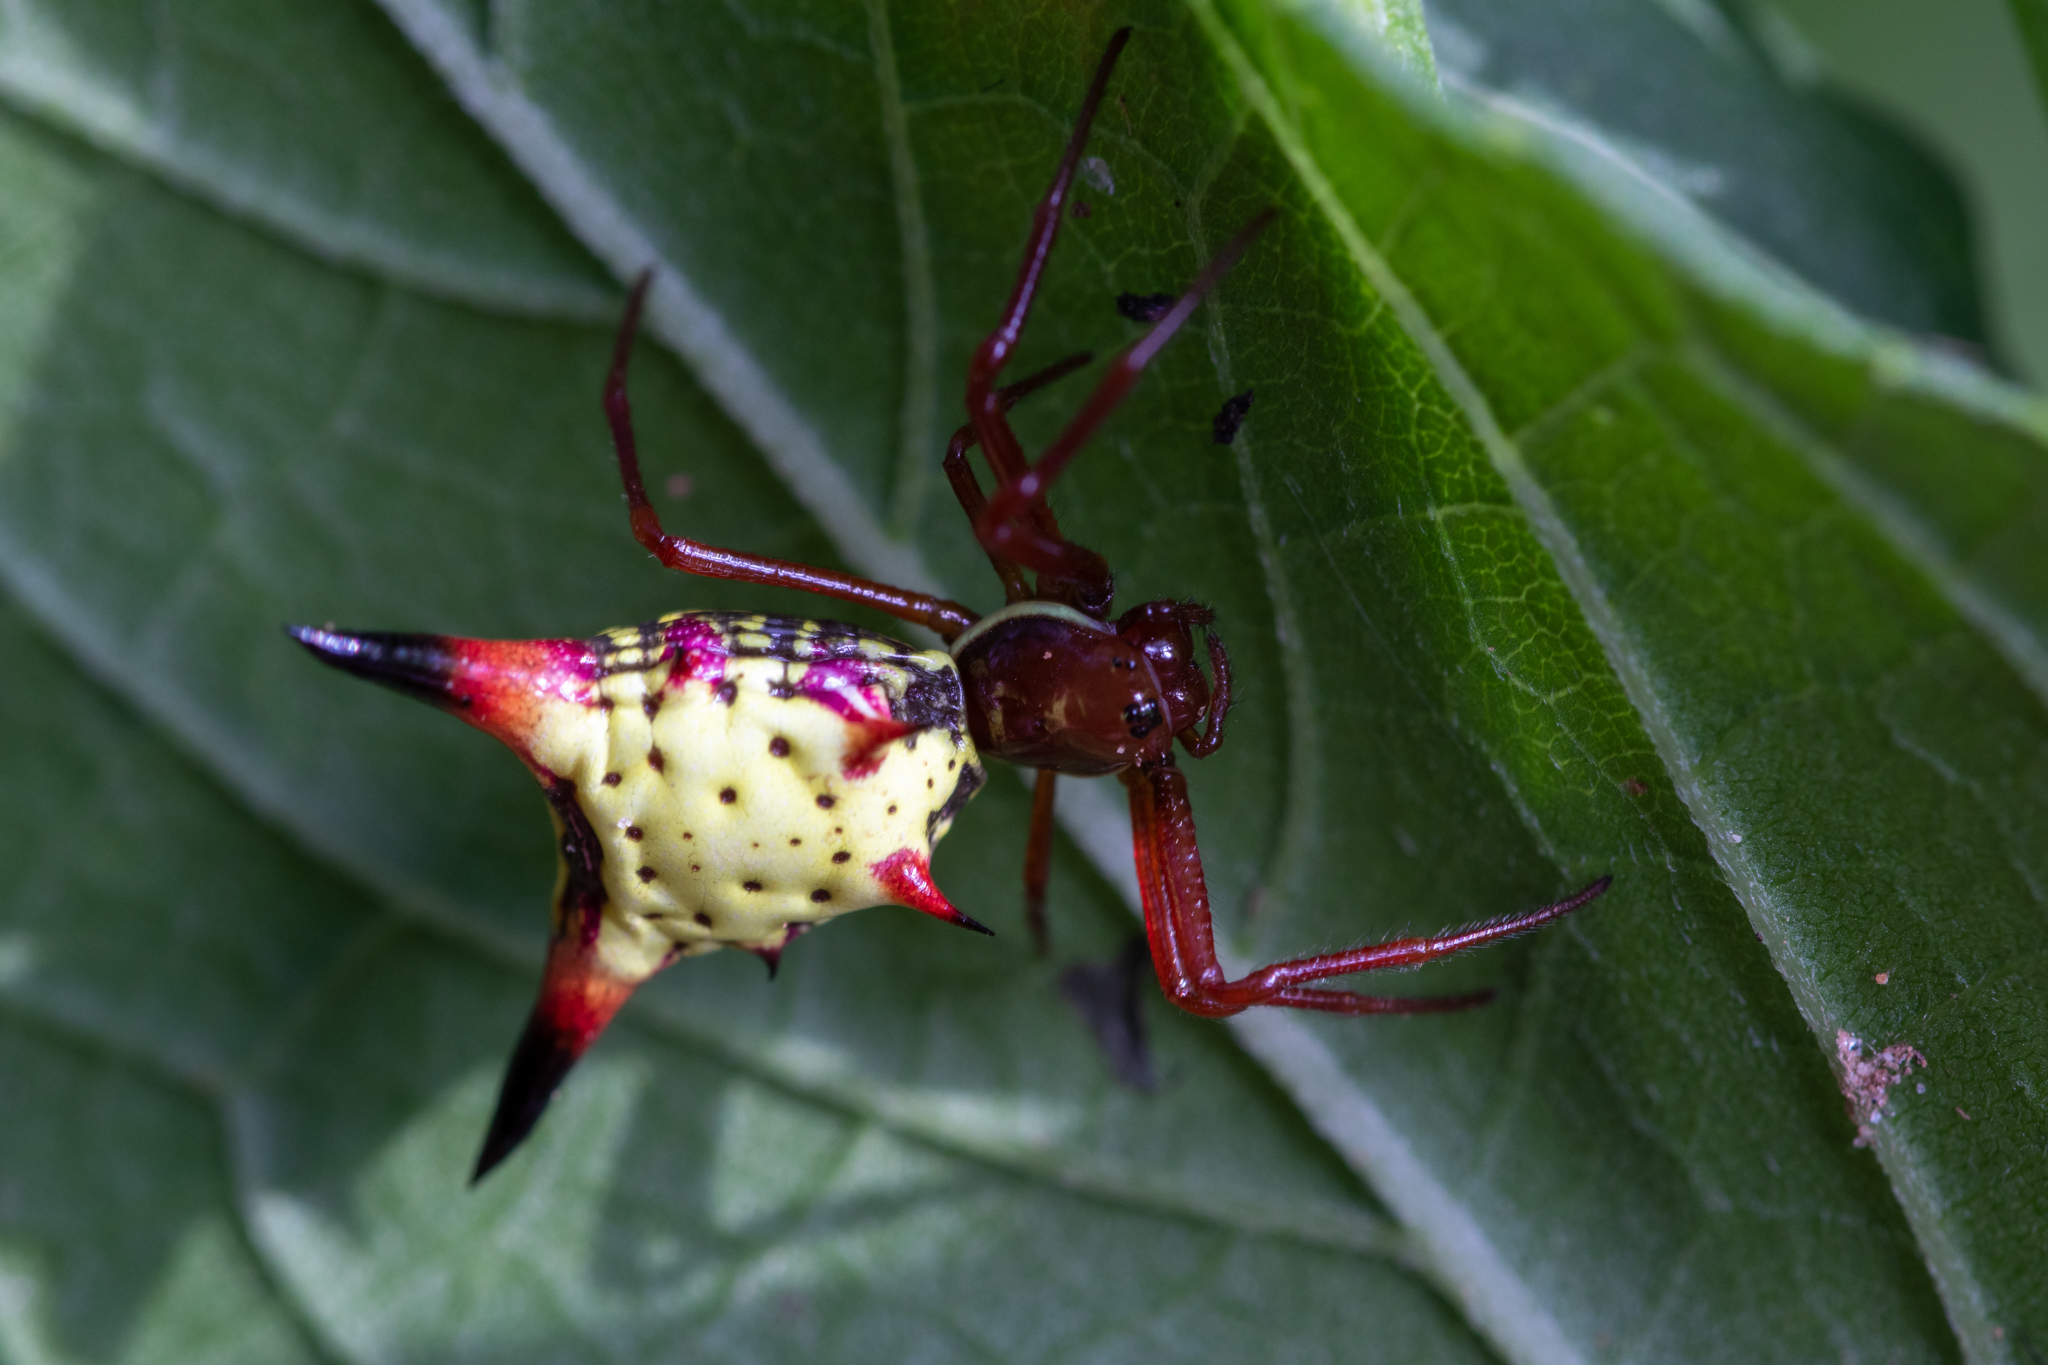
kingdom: Animalia
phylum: Arthropoda
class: Arachnida
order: Araneae
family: Araneidae
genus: Micrathena
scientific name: Micrathena sagittata
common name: Orb weavers
